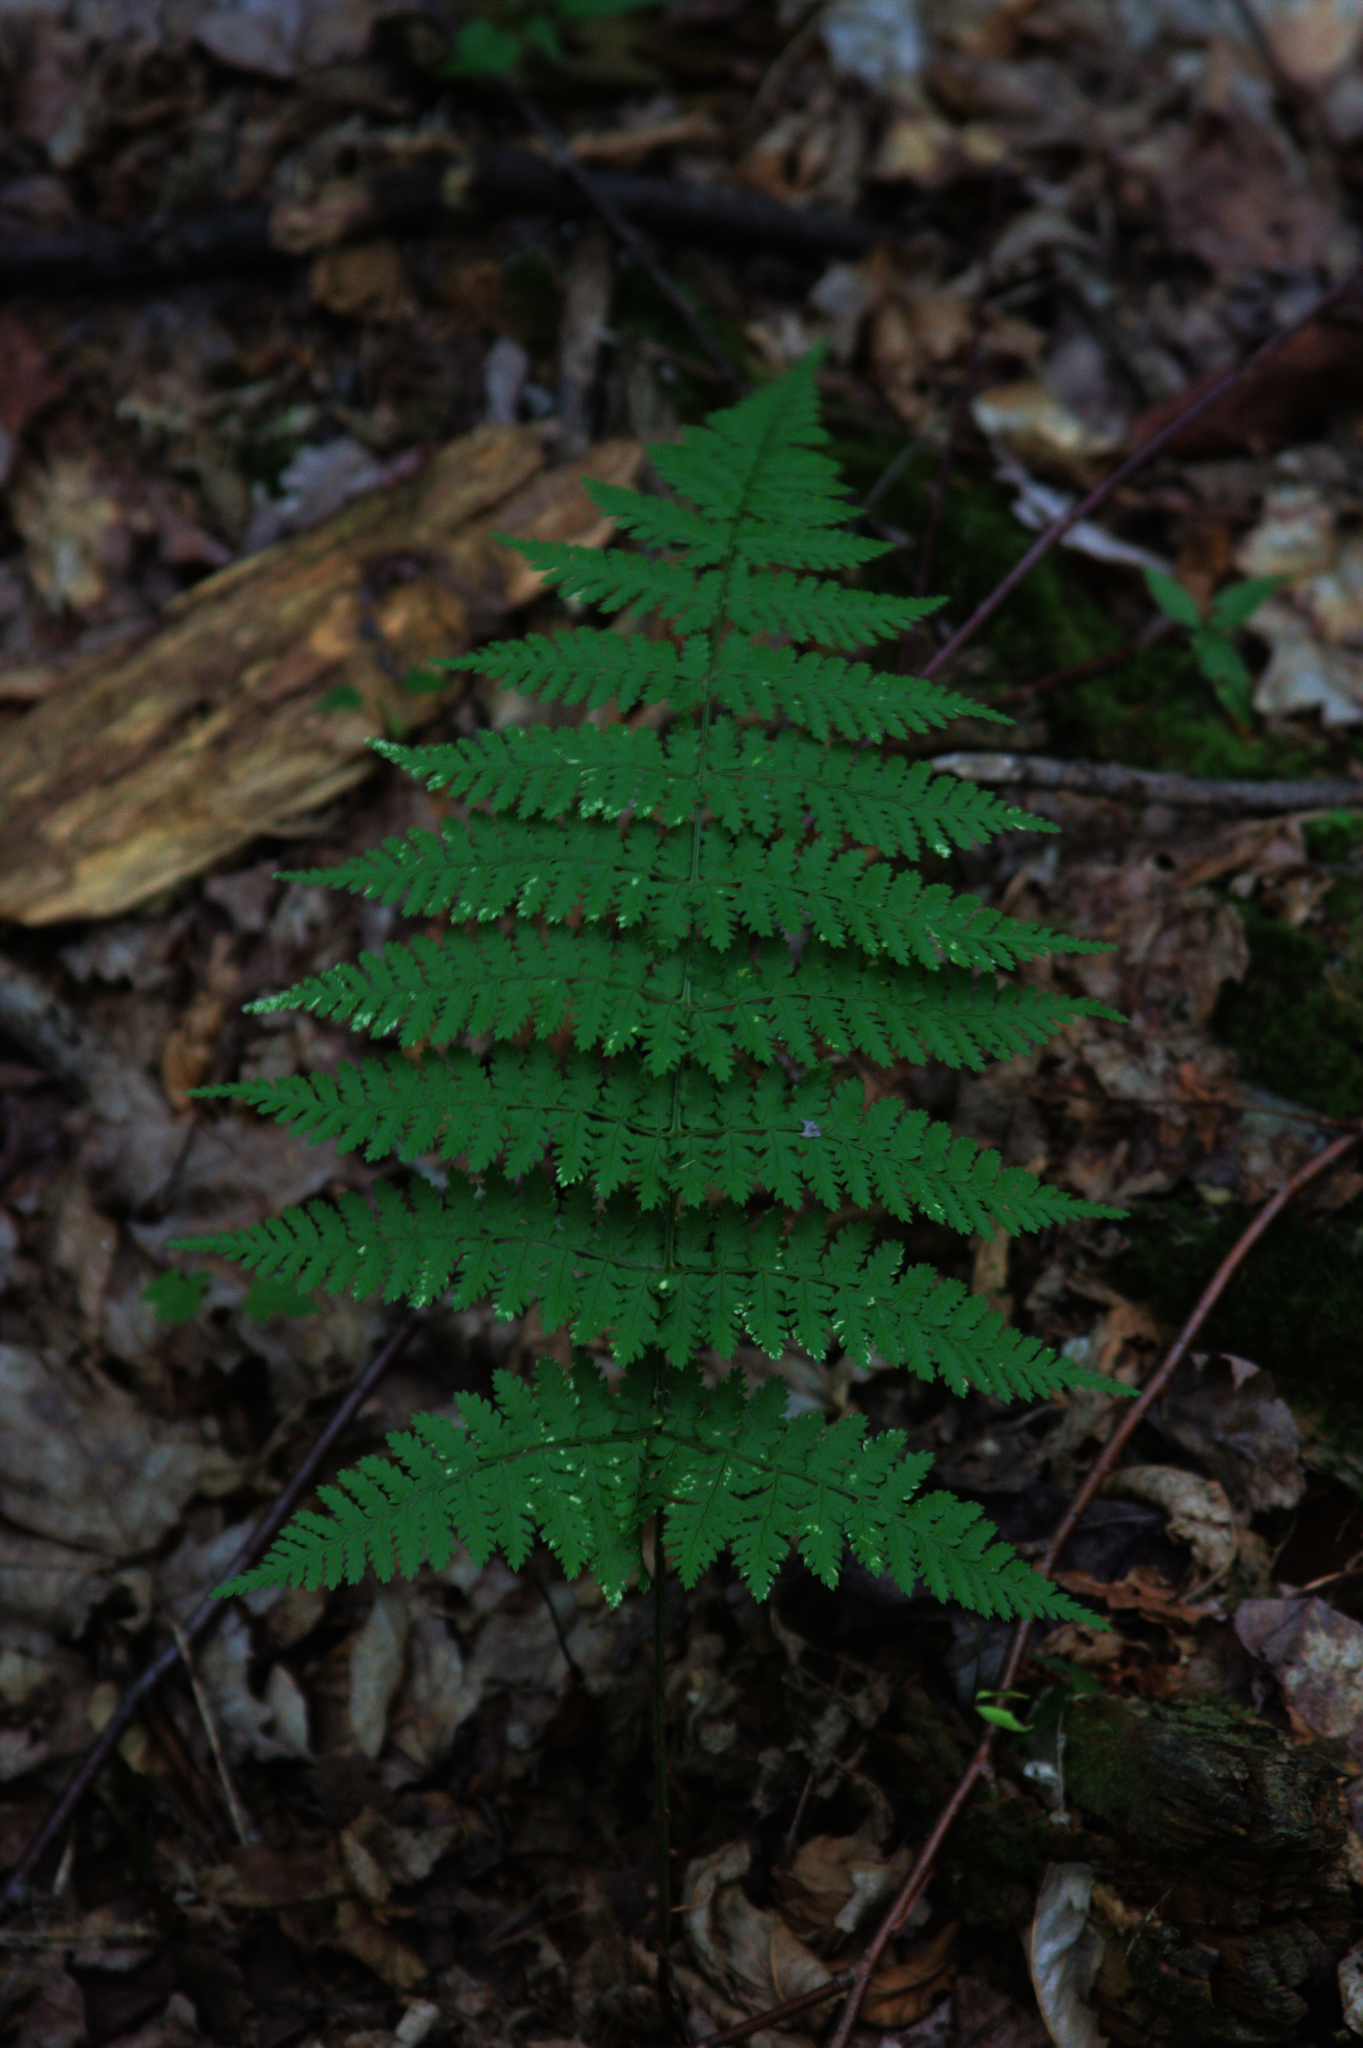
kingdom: Plantae
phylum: Tracheophyta
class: Polypodiopsida
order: Polypodiales
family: Dryopteridaceae
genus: Dryopteris
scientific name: Dryopteris intermedia
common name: Evergreen wood fern
